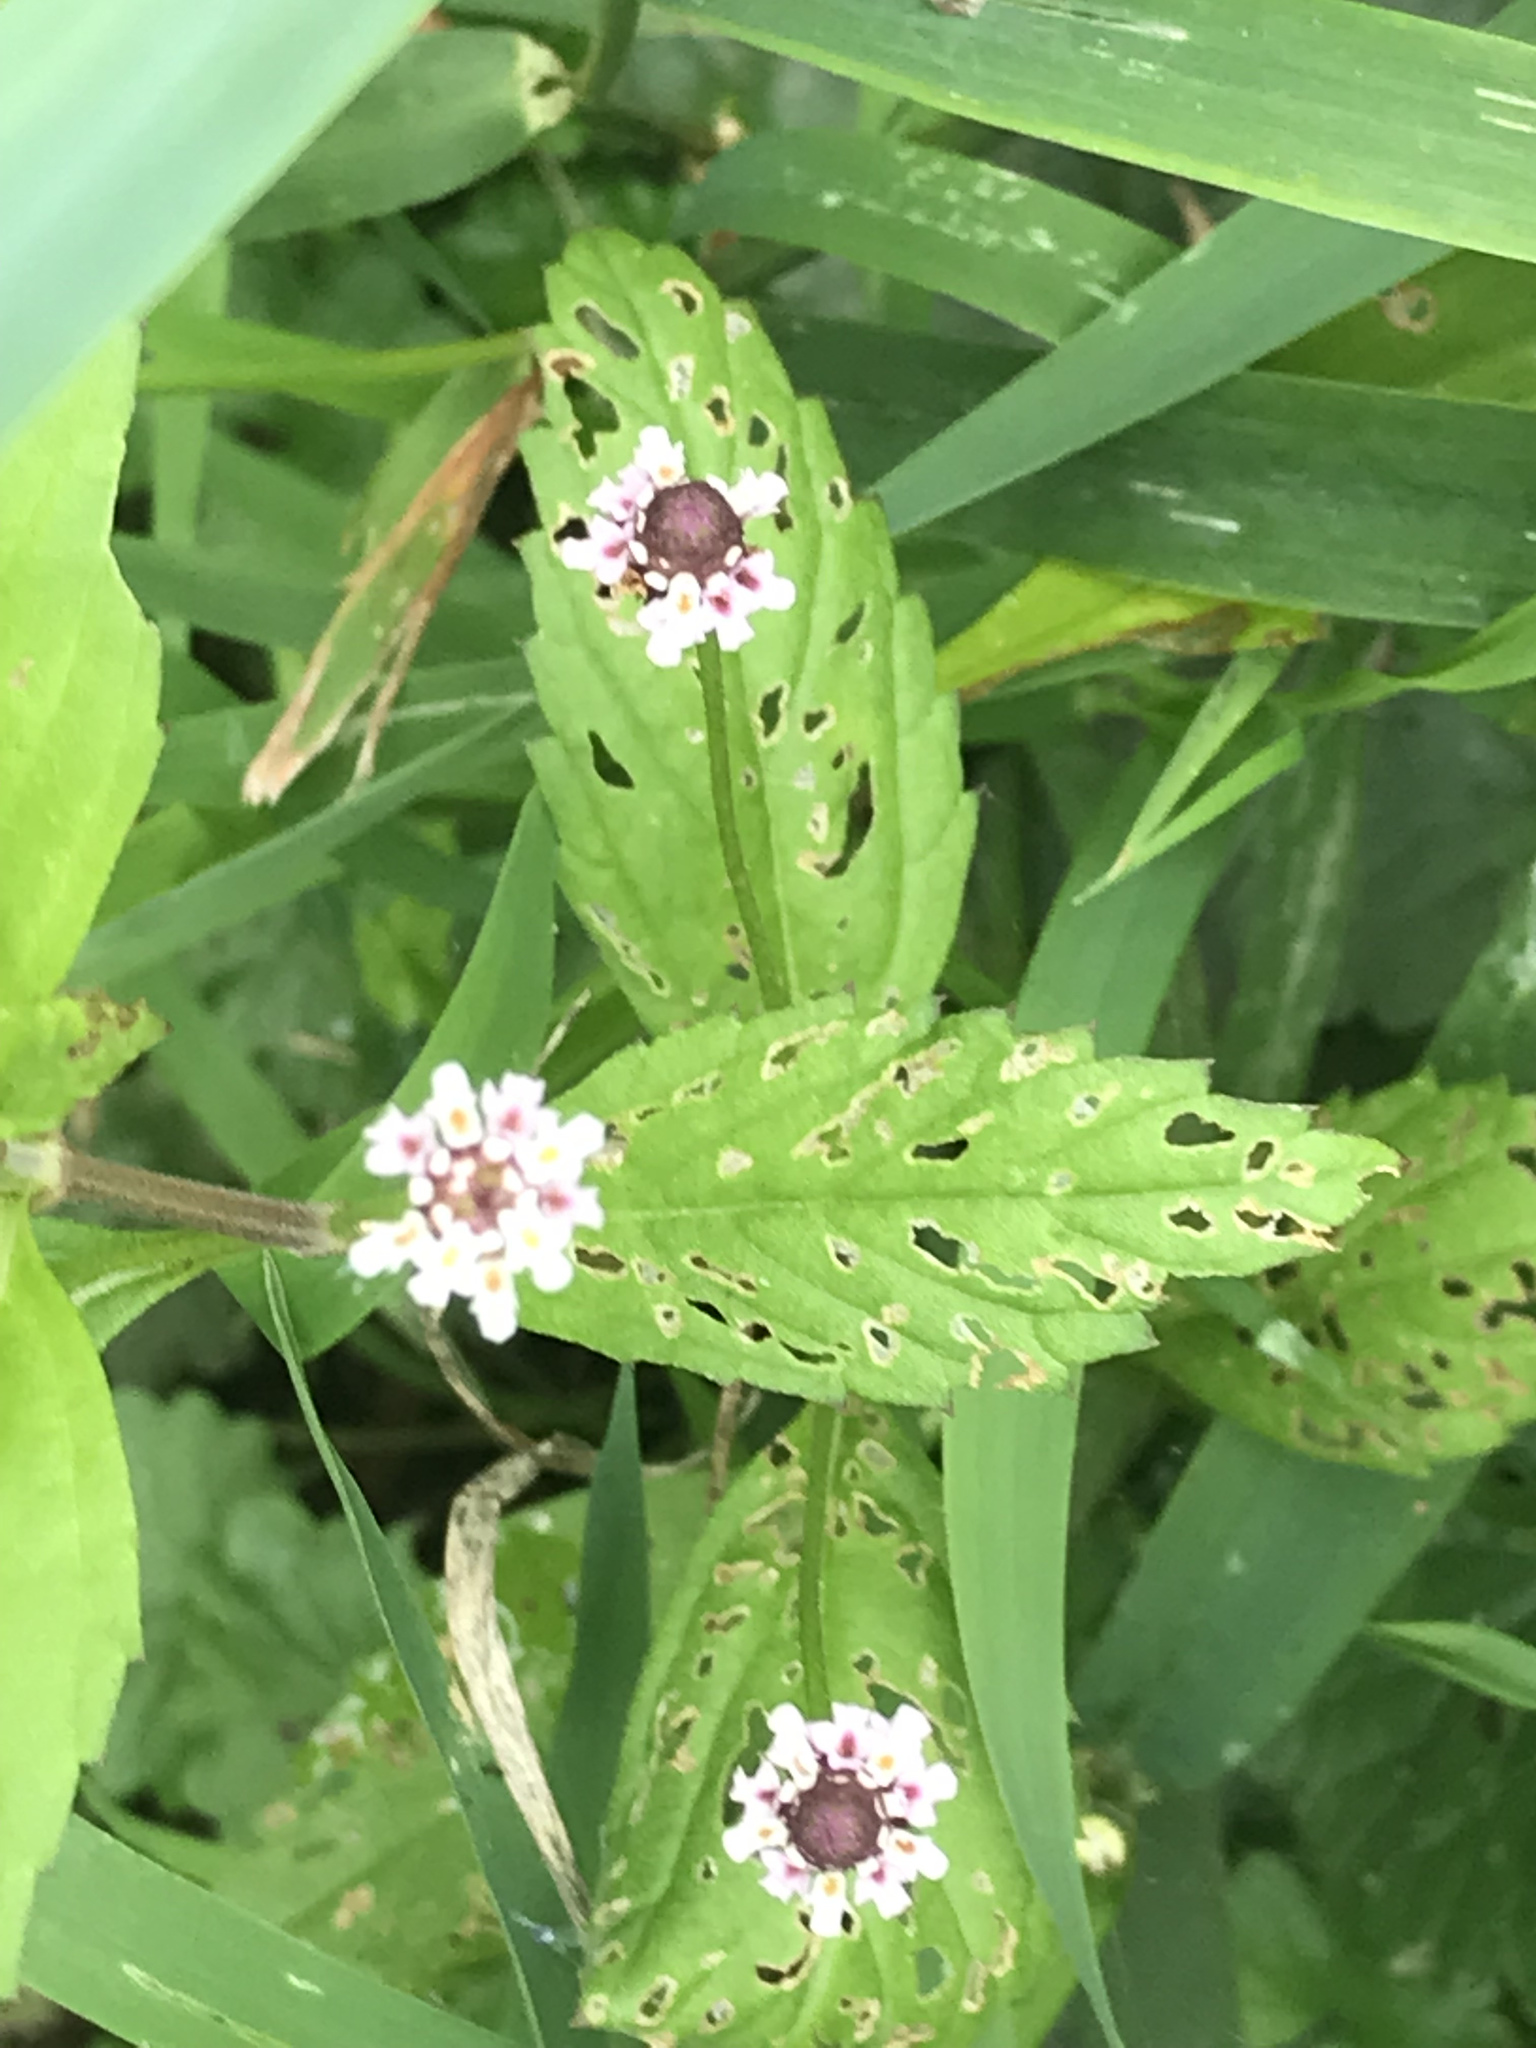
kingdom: Plantae
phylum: Tracheophyta
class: Magnoliopsida
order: Lamiales
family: Verbenaceae
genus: Phyla
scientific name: Phyla lanceolata
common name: Northern fogfruit
